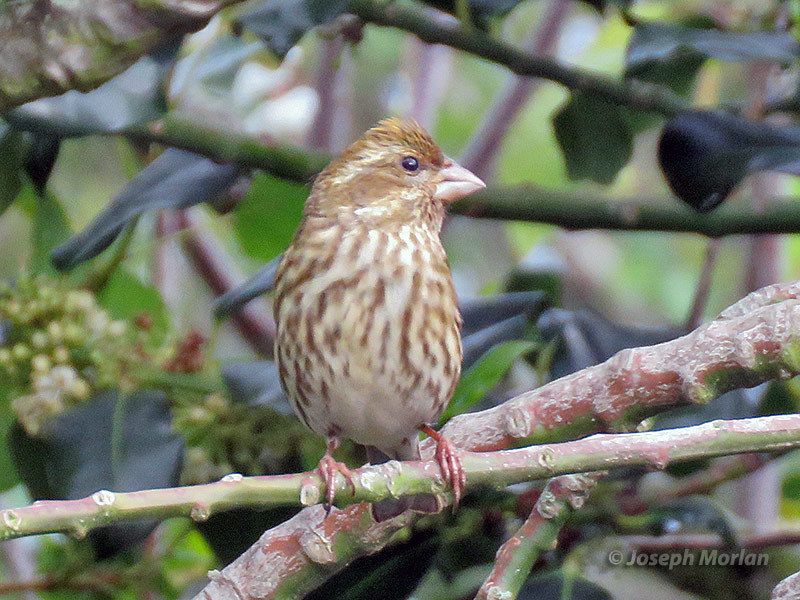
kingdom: Animalia
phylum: Chordata
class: Aves
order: Passeriformes
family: Fringillidae
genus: Haemorhous
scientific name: Haemorhous purpureus
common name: Purple finch
